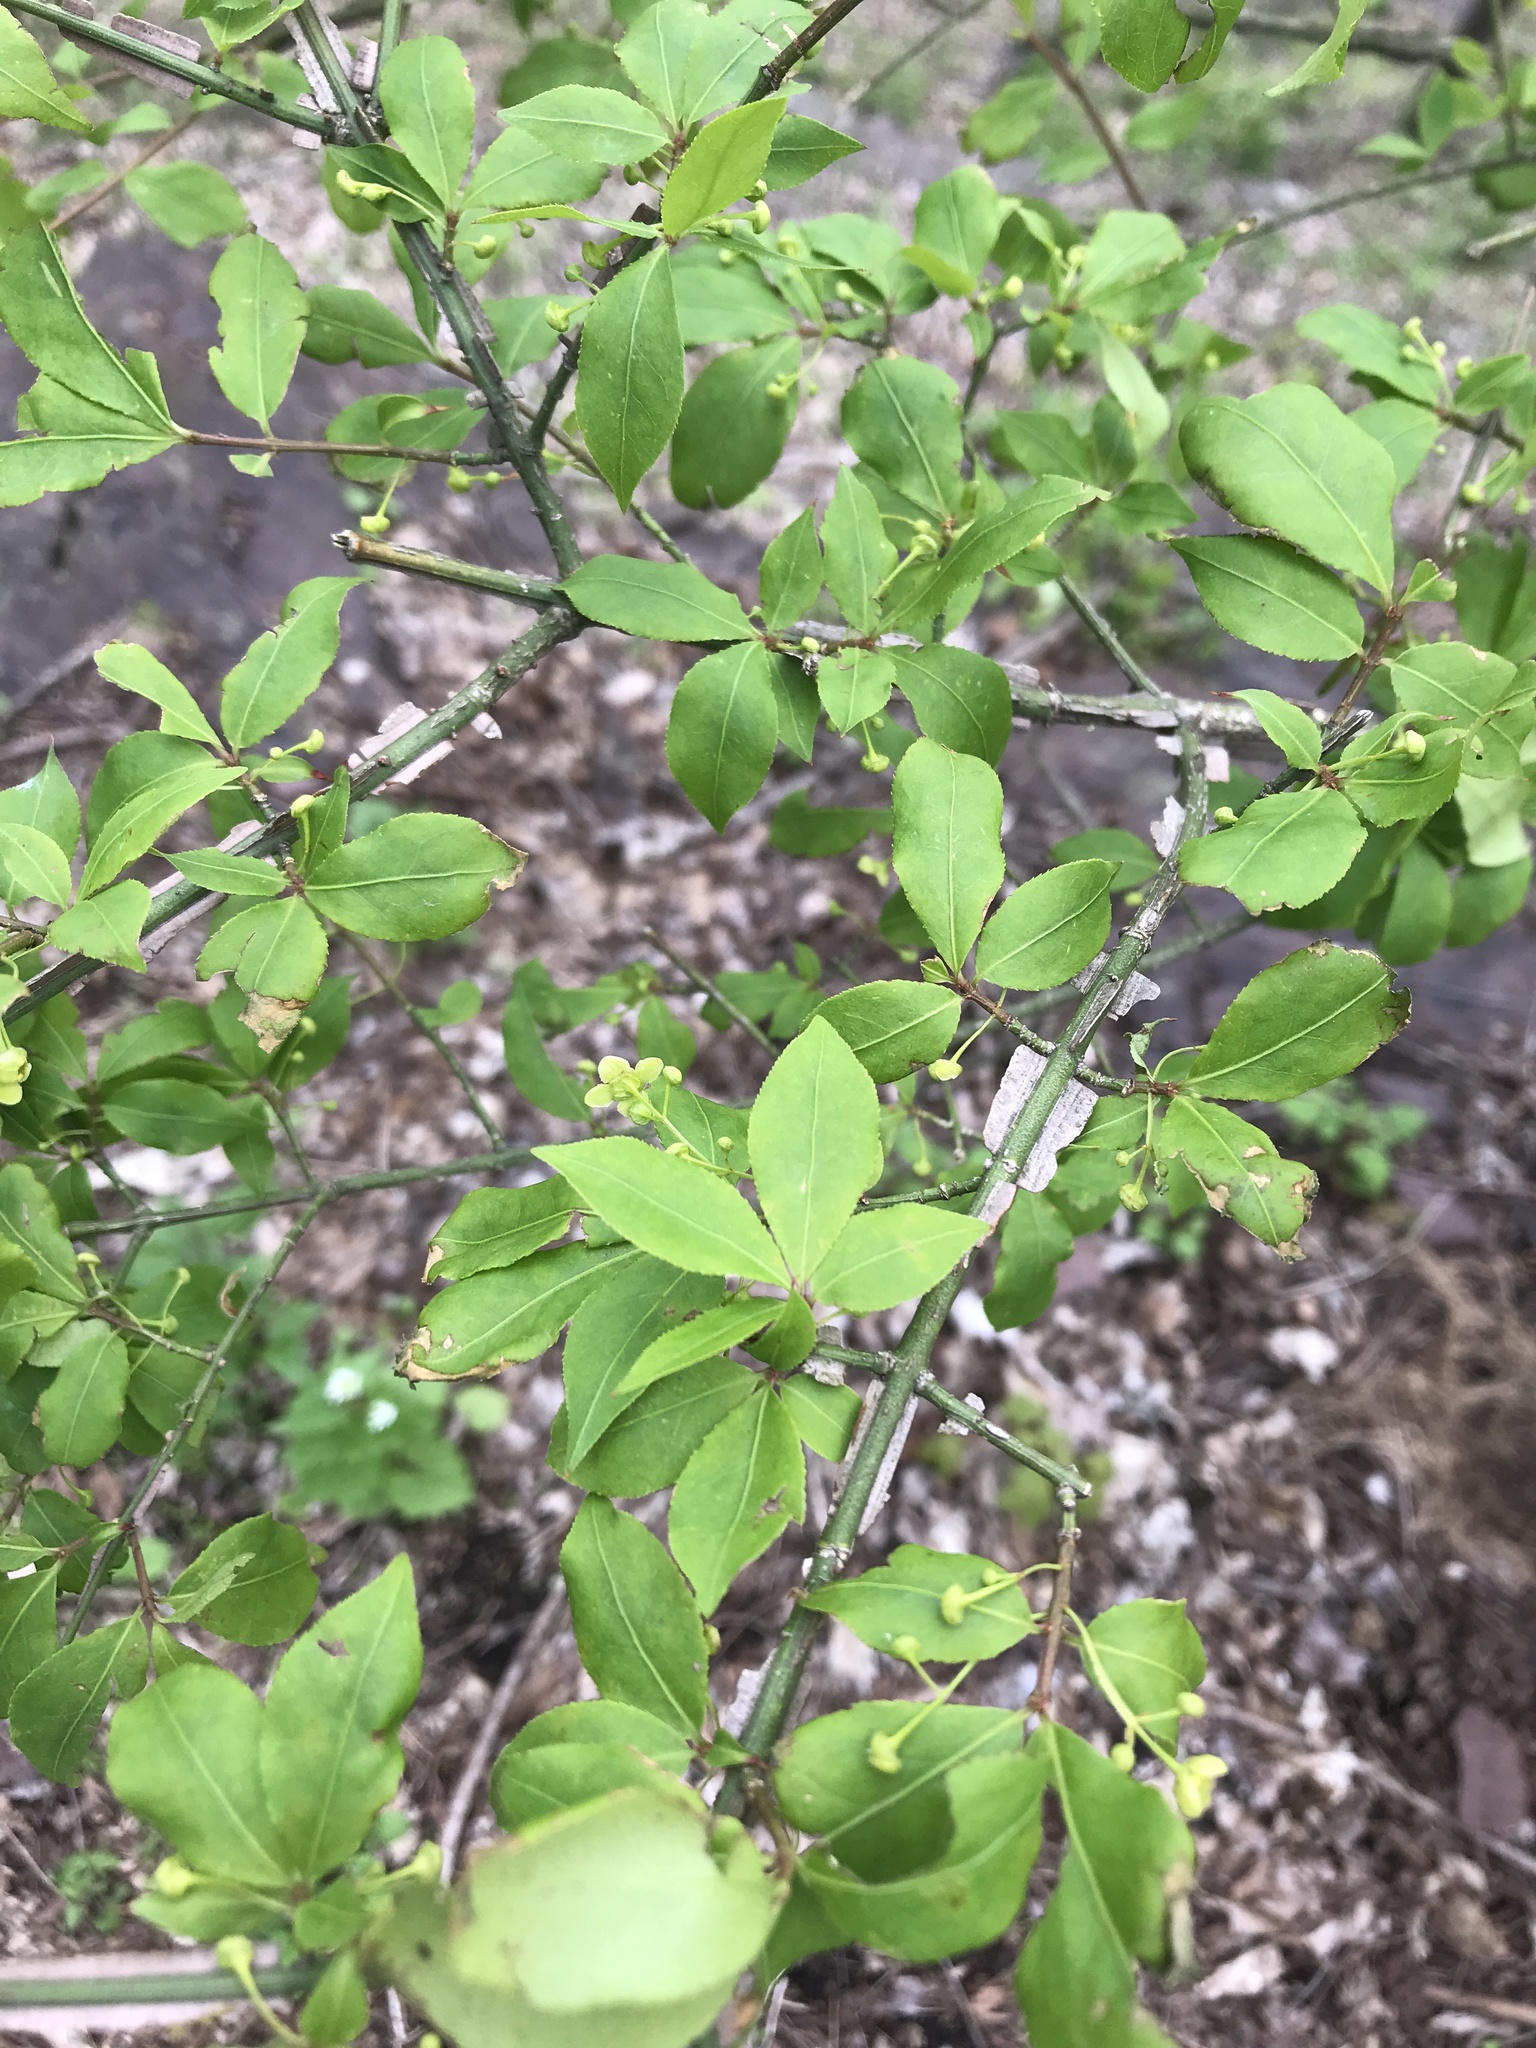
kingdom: Plantae
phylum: Tracheophyta
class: Magnoliopsida
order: Celastrales
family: Celastraceae
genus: Euonymus
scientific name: Euonymus alatus
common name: Winged euonymus
